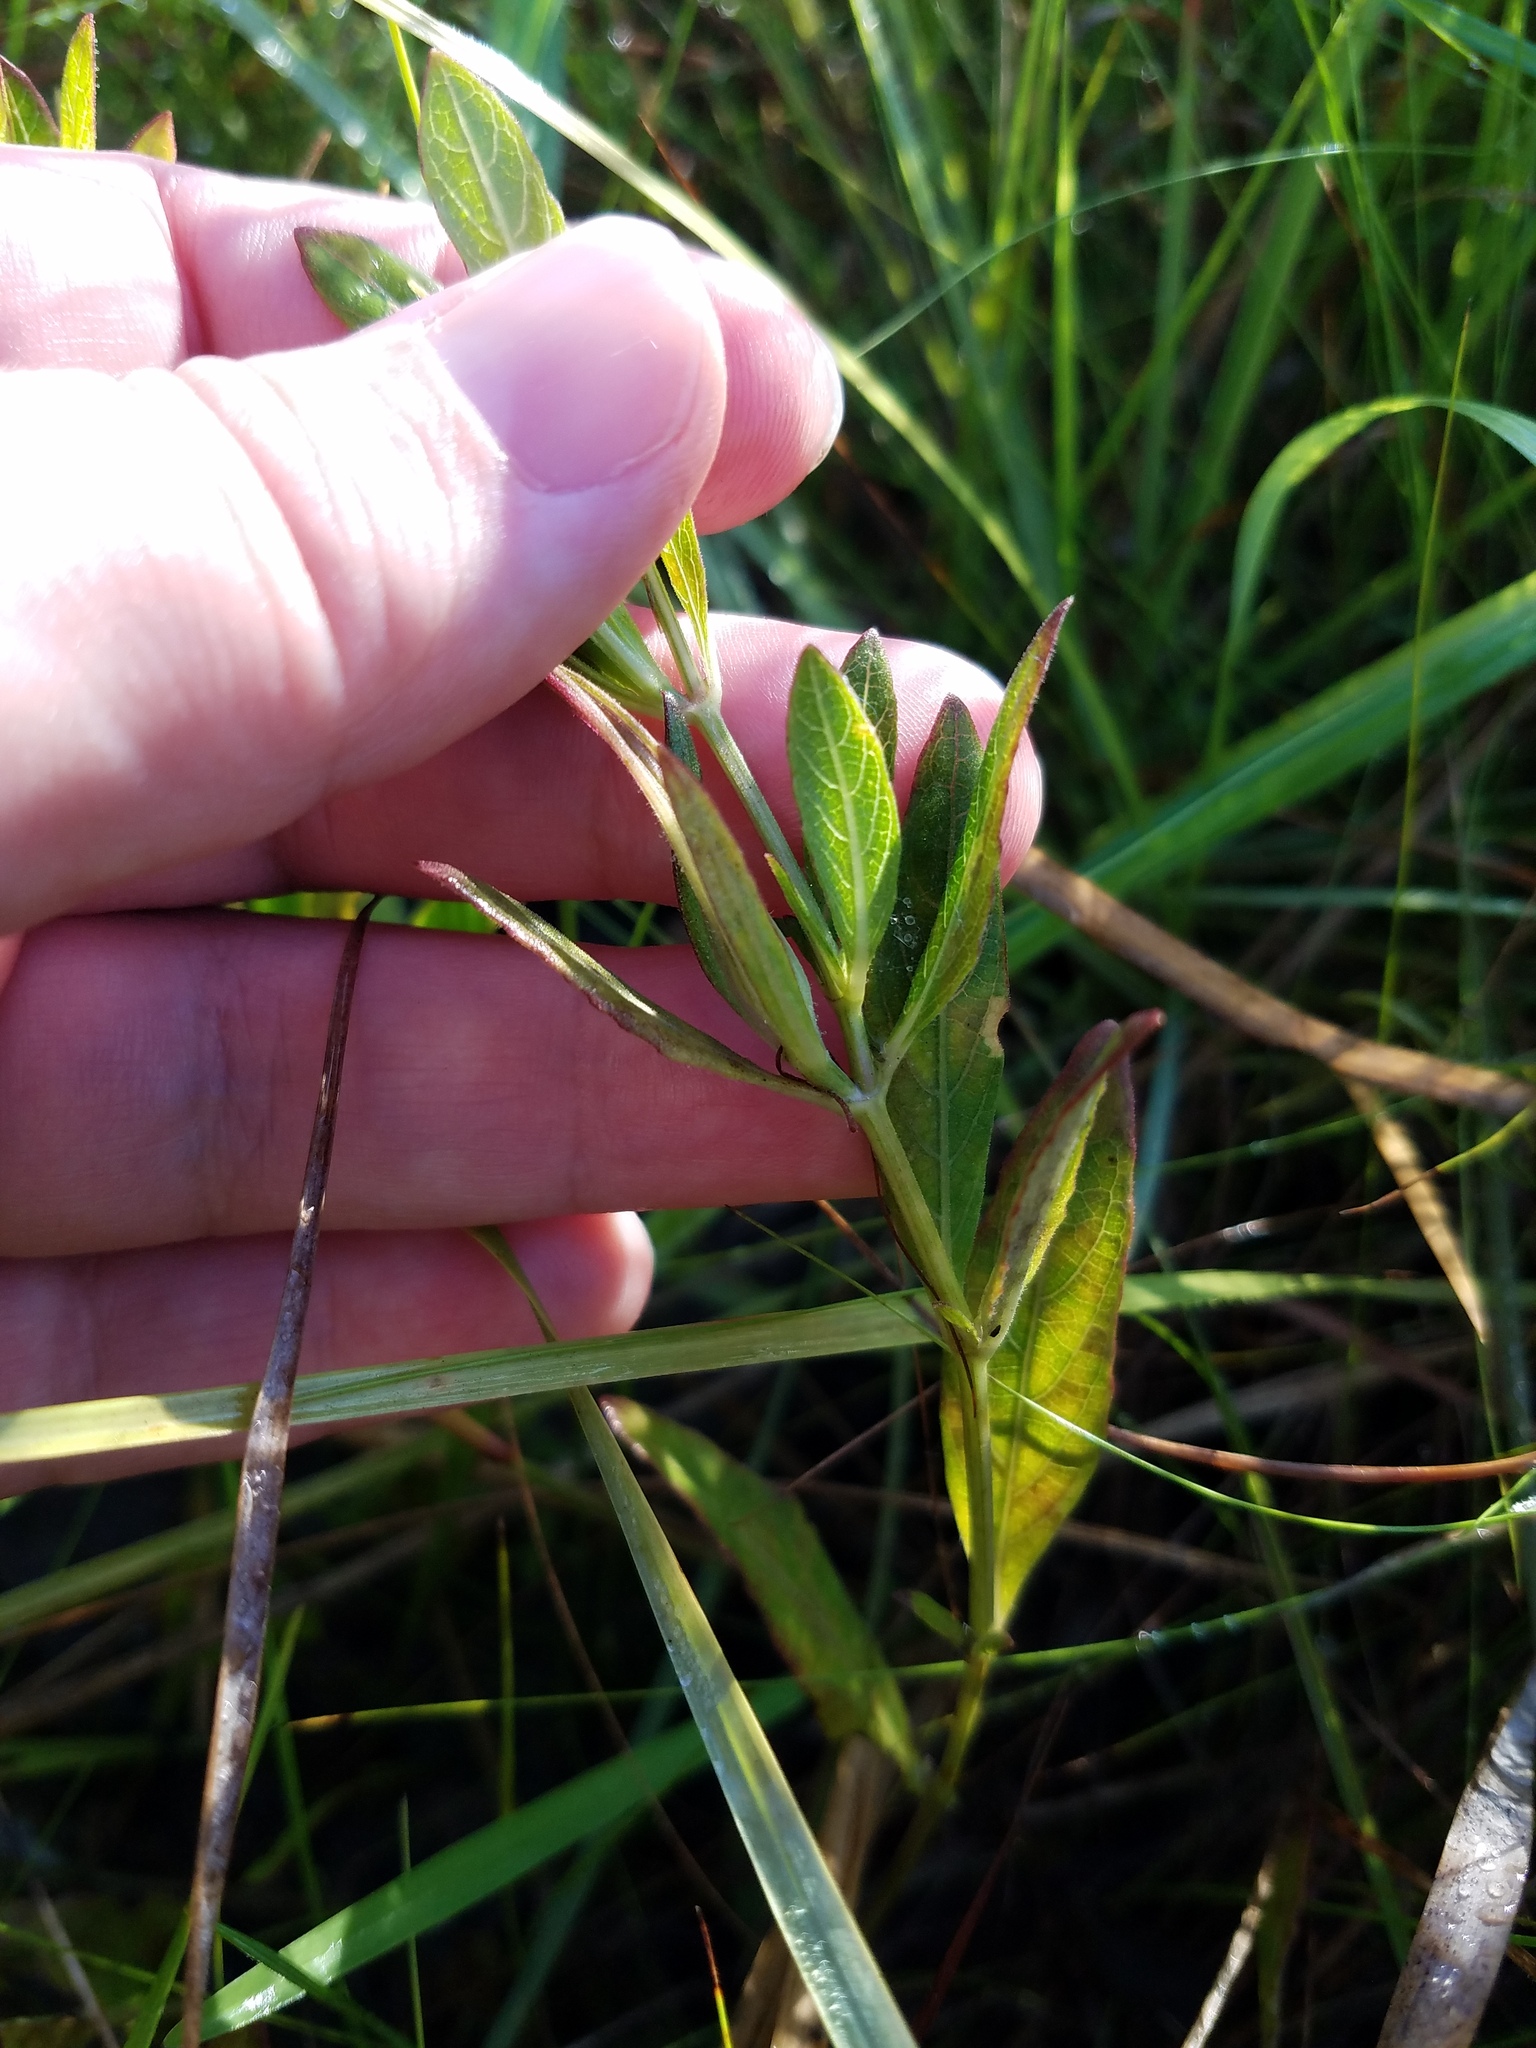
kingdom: Plantae
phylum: Tracheophyta
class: Magnoliopsida
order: Lamiales
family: Acanthaceae
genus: Ruellia
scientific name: Ruellia noctiflora
